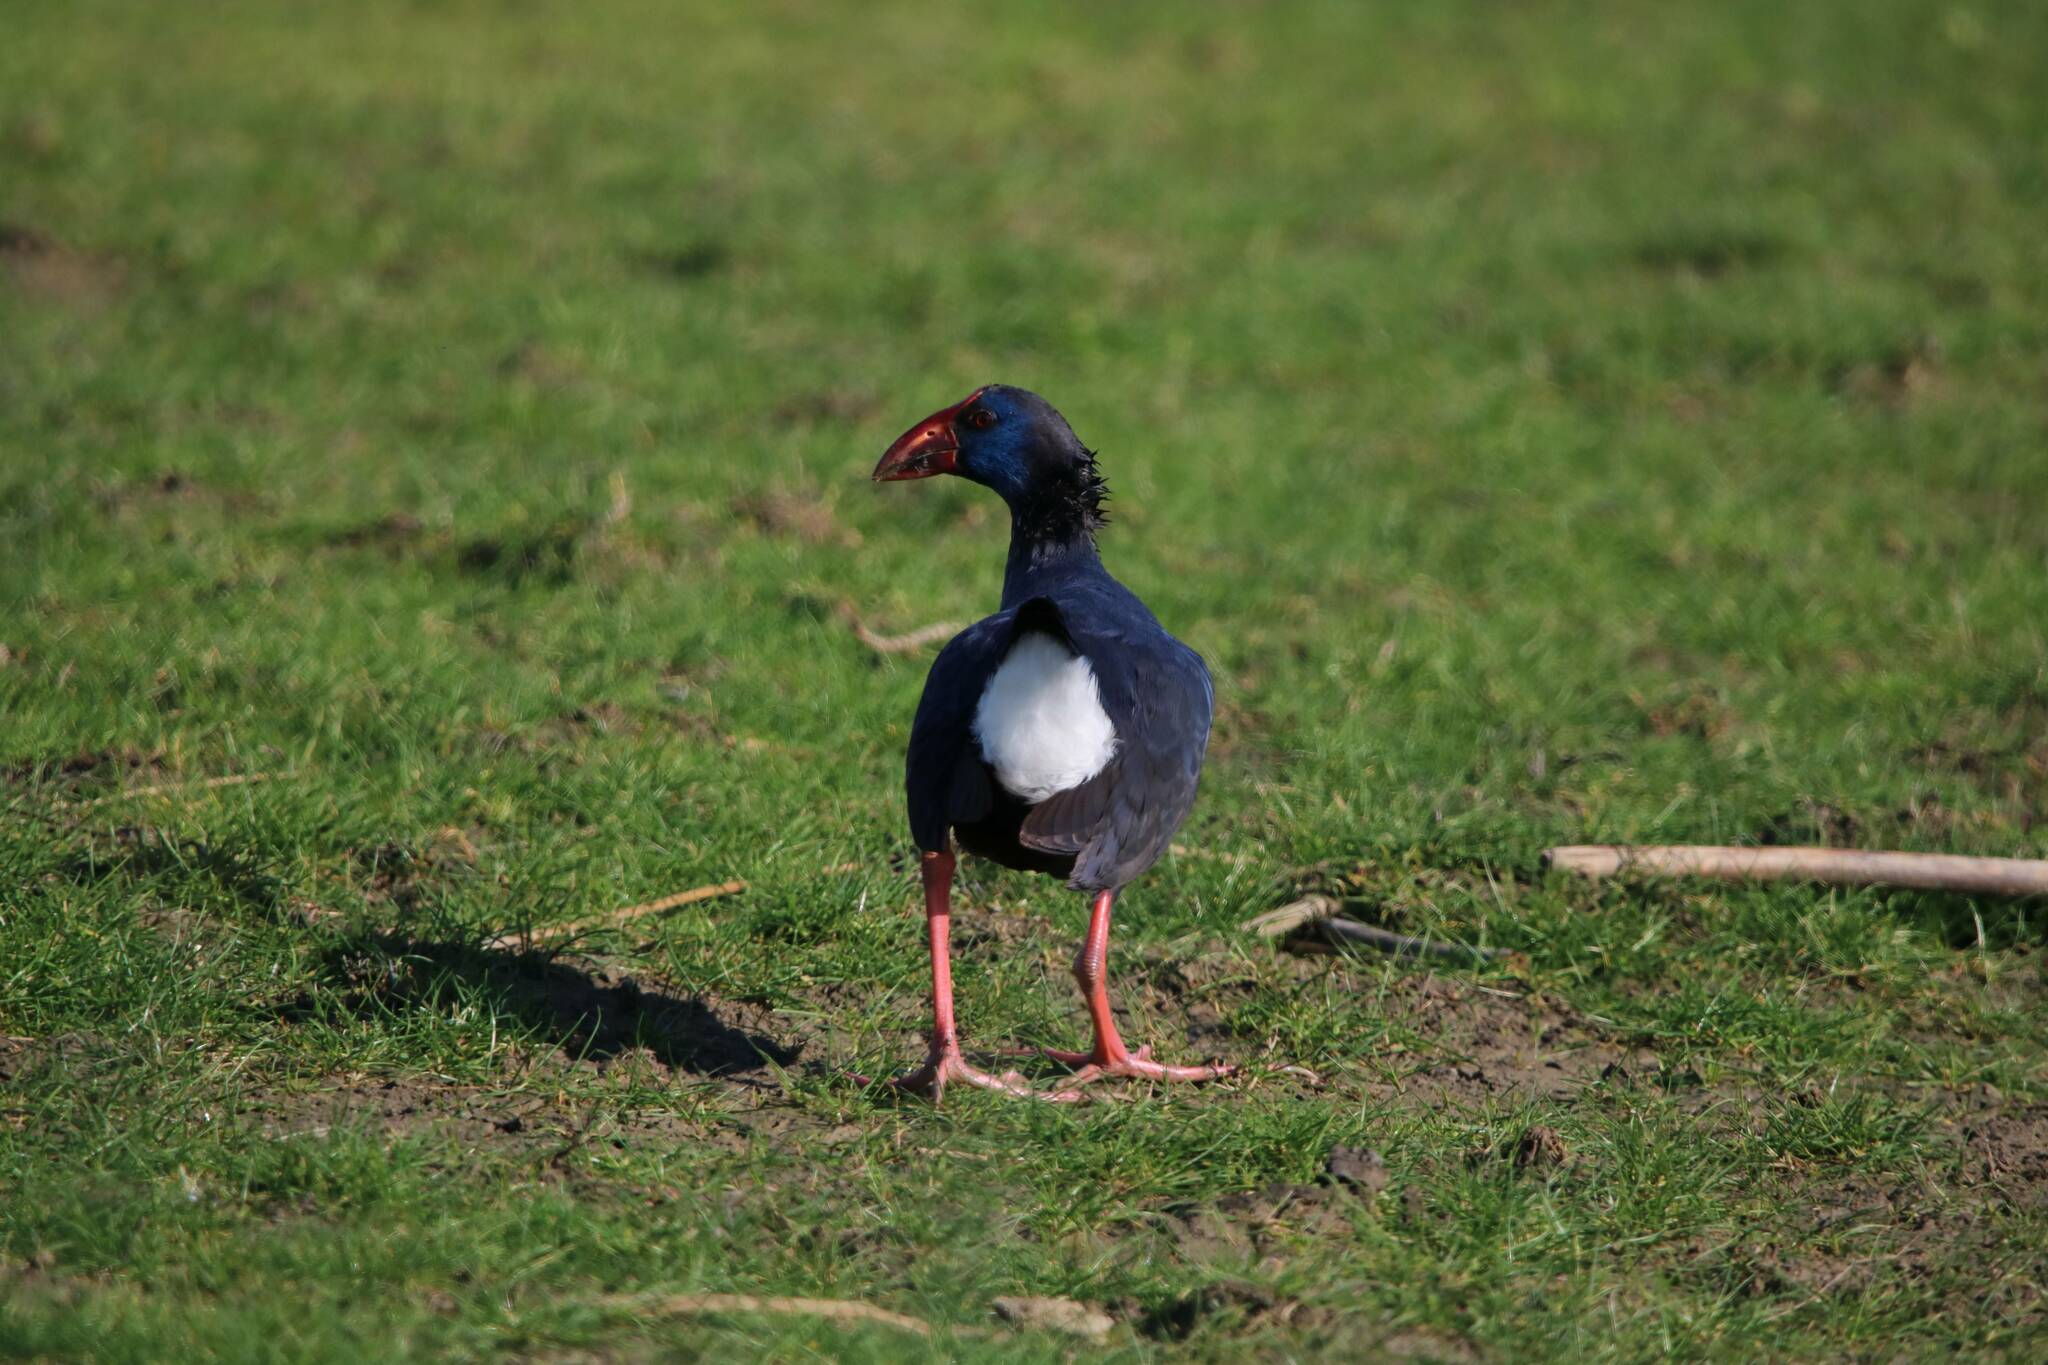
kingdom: Animalia
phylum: Chordata
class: Aves
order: Gruiformes
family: Rallidae
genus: Porphyrio
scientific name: Porphyrio porphyrio
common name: Purple swamphen
